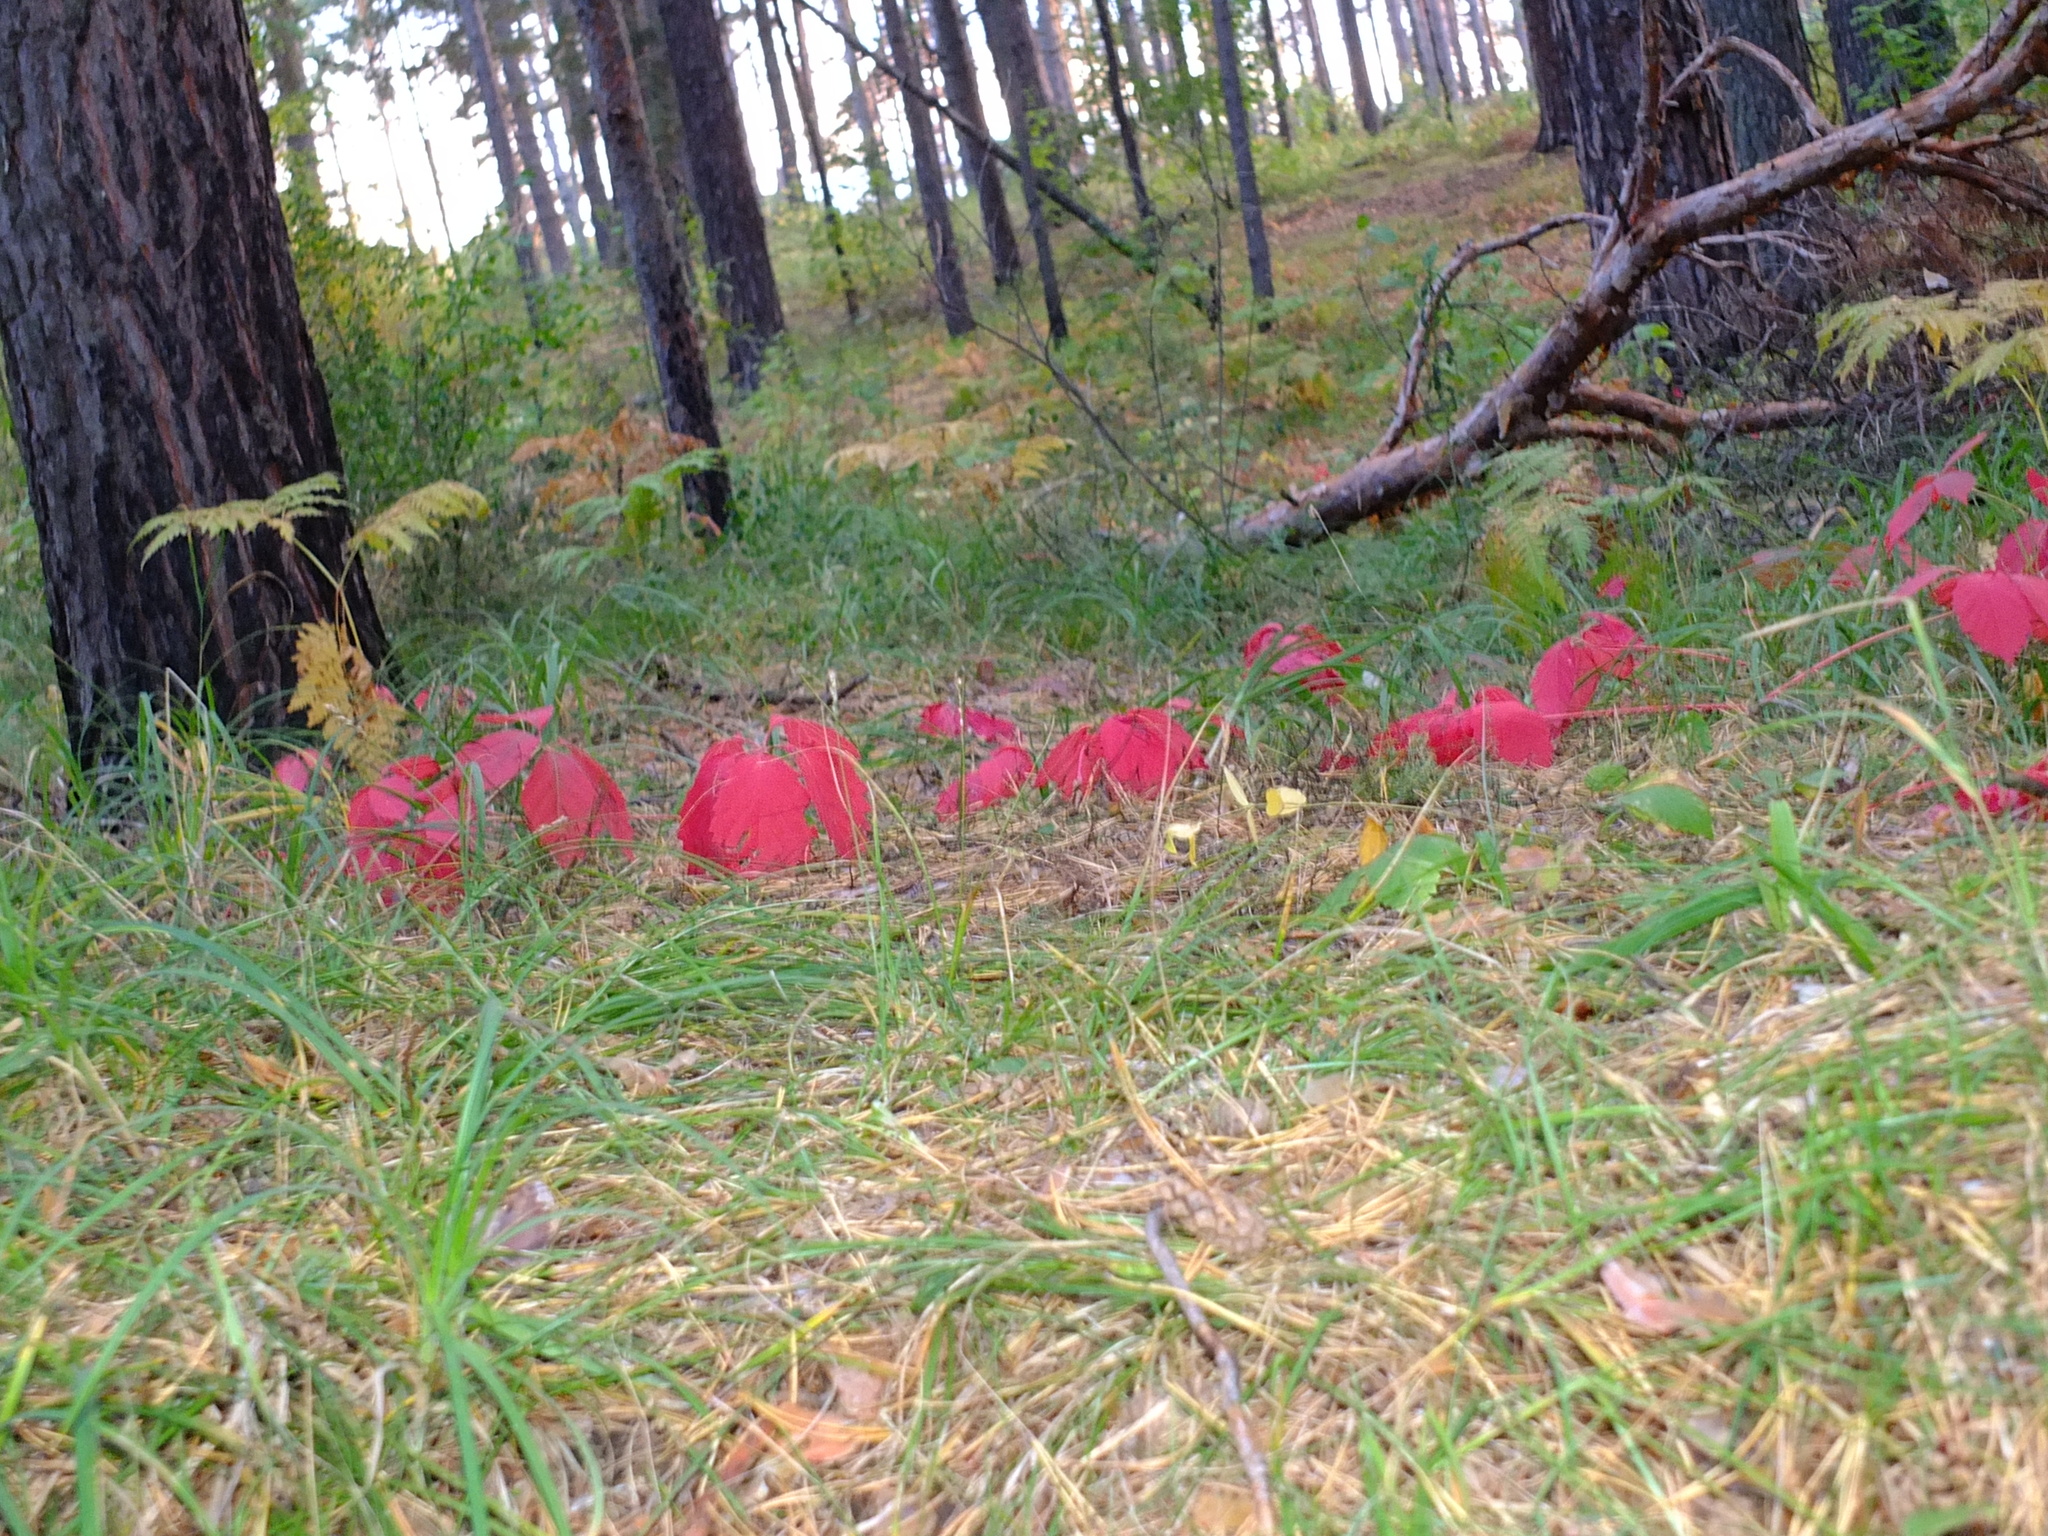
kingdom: Plantae
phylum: Tracheophyta
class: Magnoliopsida
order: Vitales
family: Vitaceae
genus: Parthenocissus
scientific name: Parthenocissus inserta
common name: False virginia-creeper
